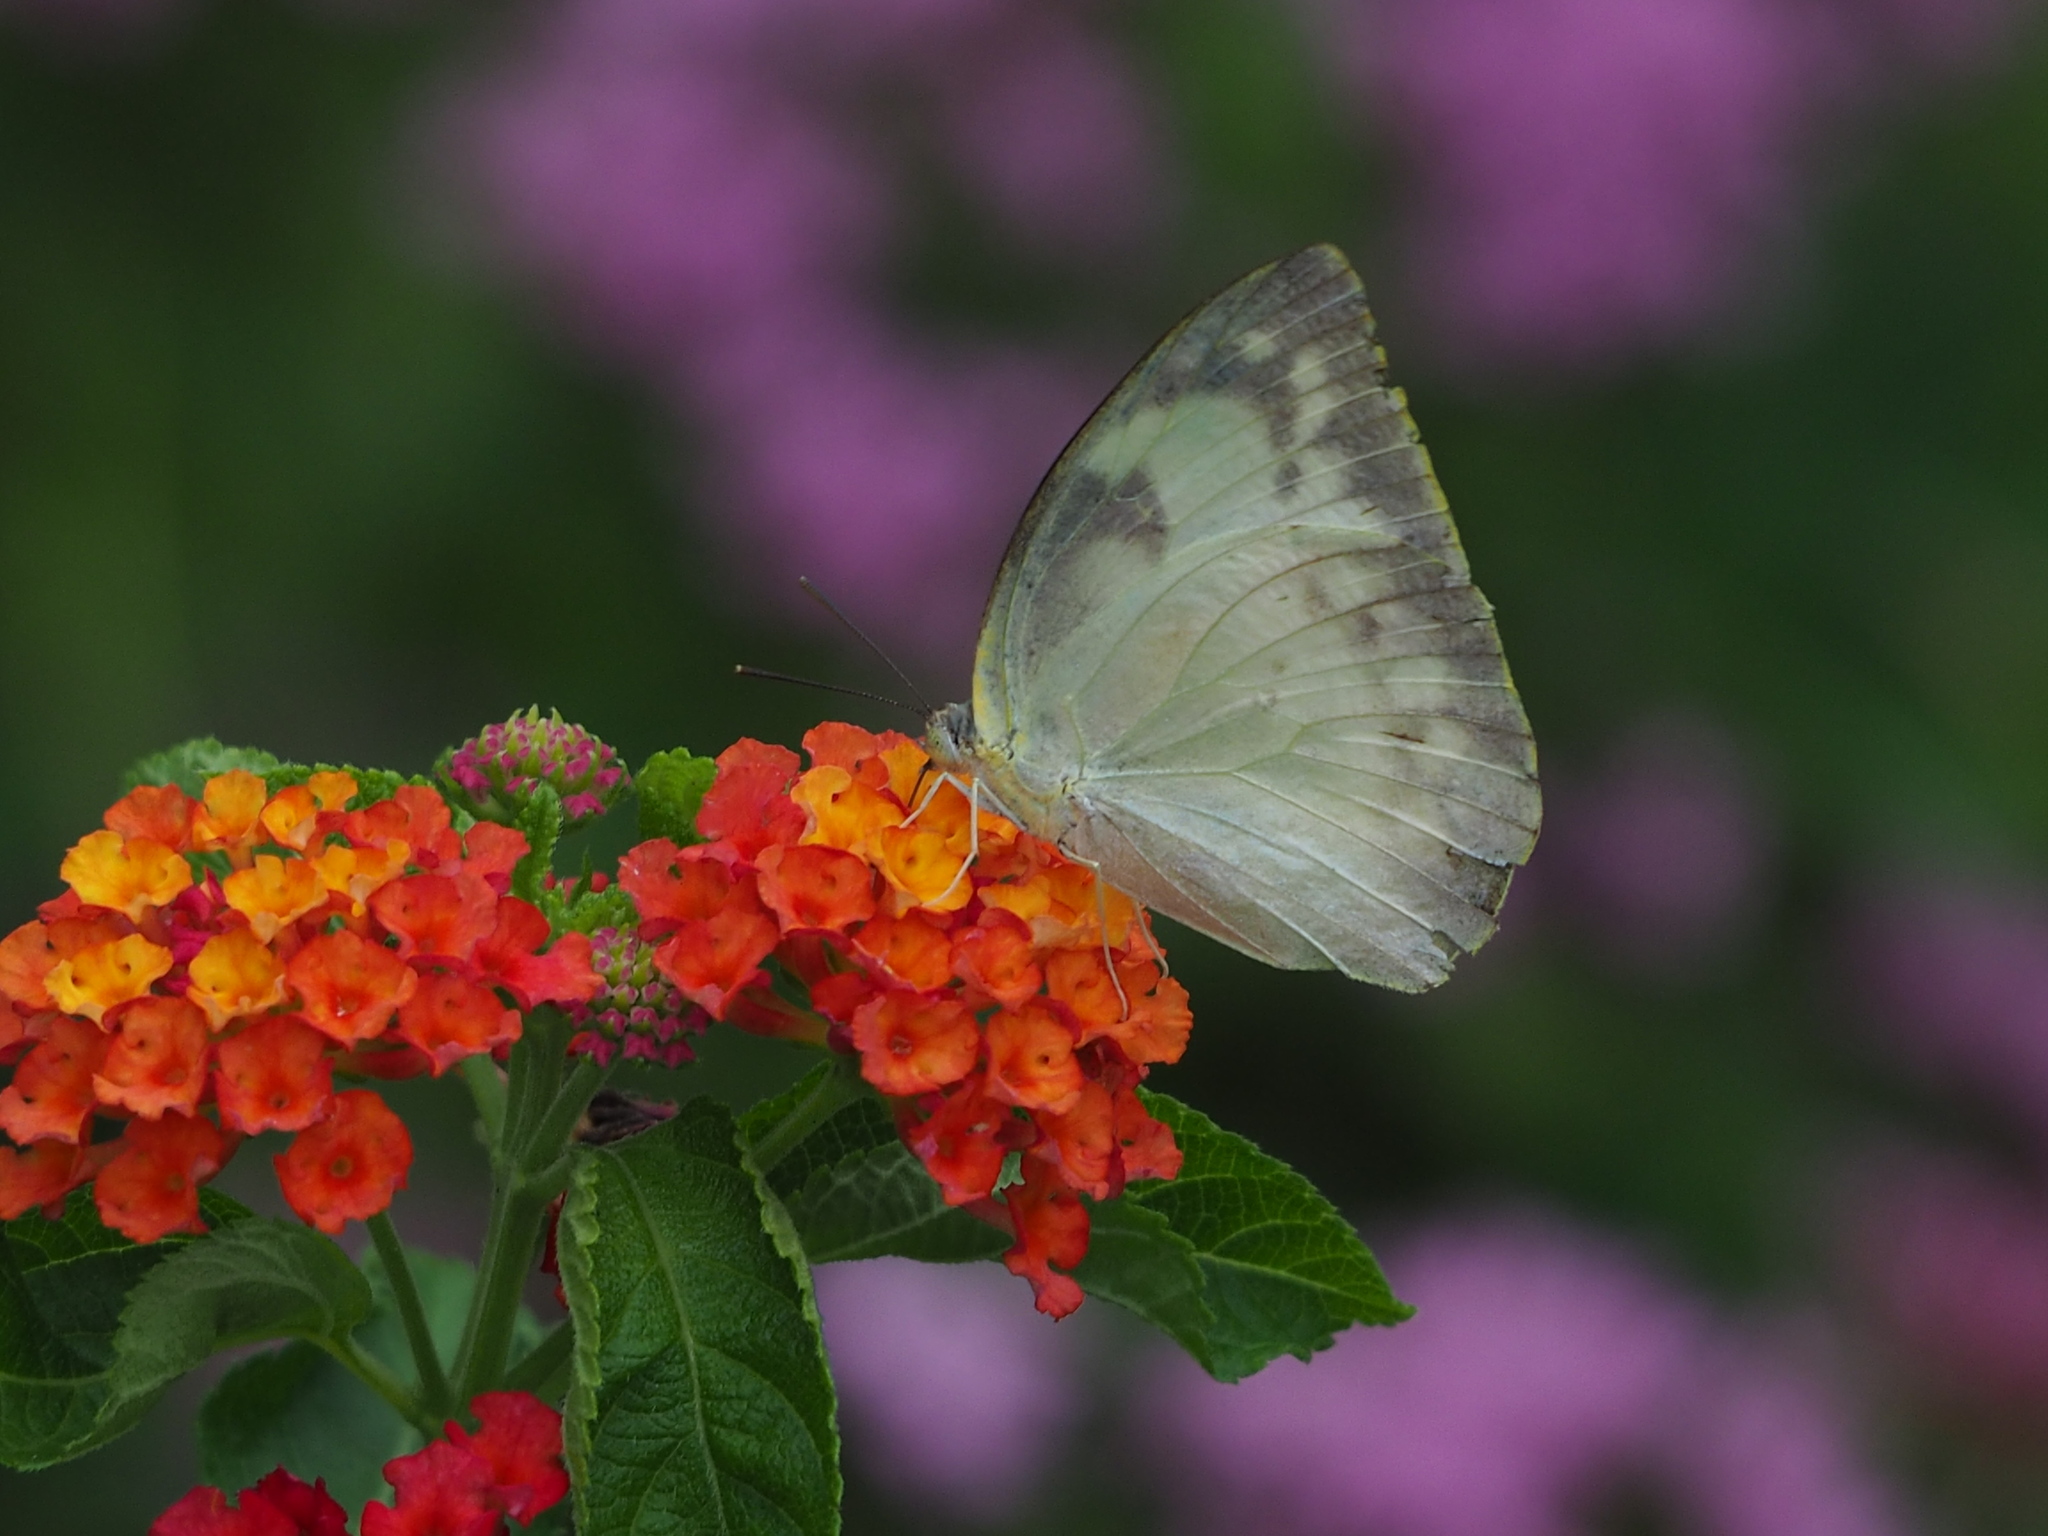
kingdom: Animalia
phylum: Arthropoda
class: Insecta
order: Lepidoptera
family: Pieridae
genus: Catopsilia
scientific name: Catopsilia pomona
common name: Common emigrant
